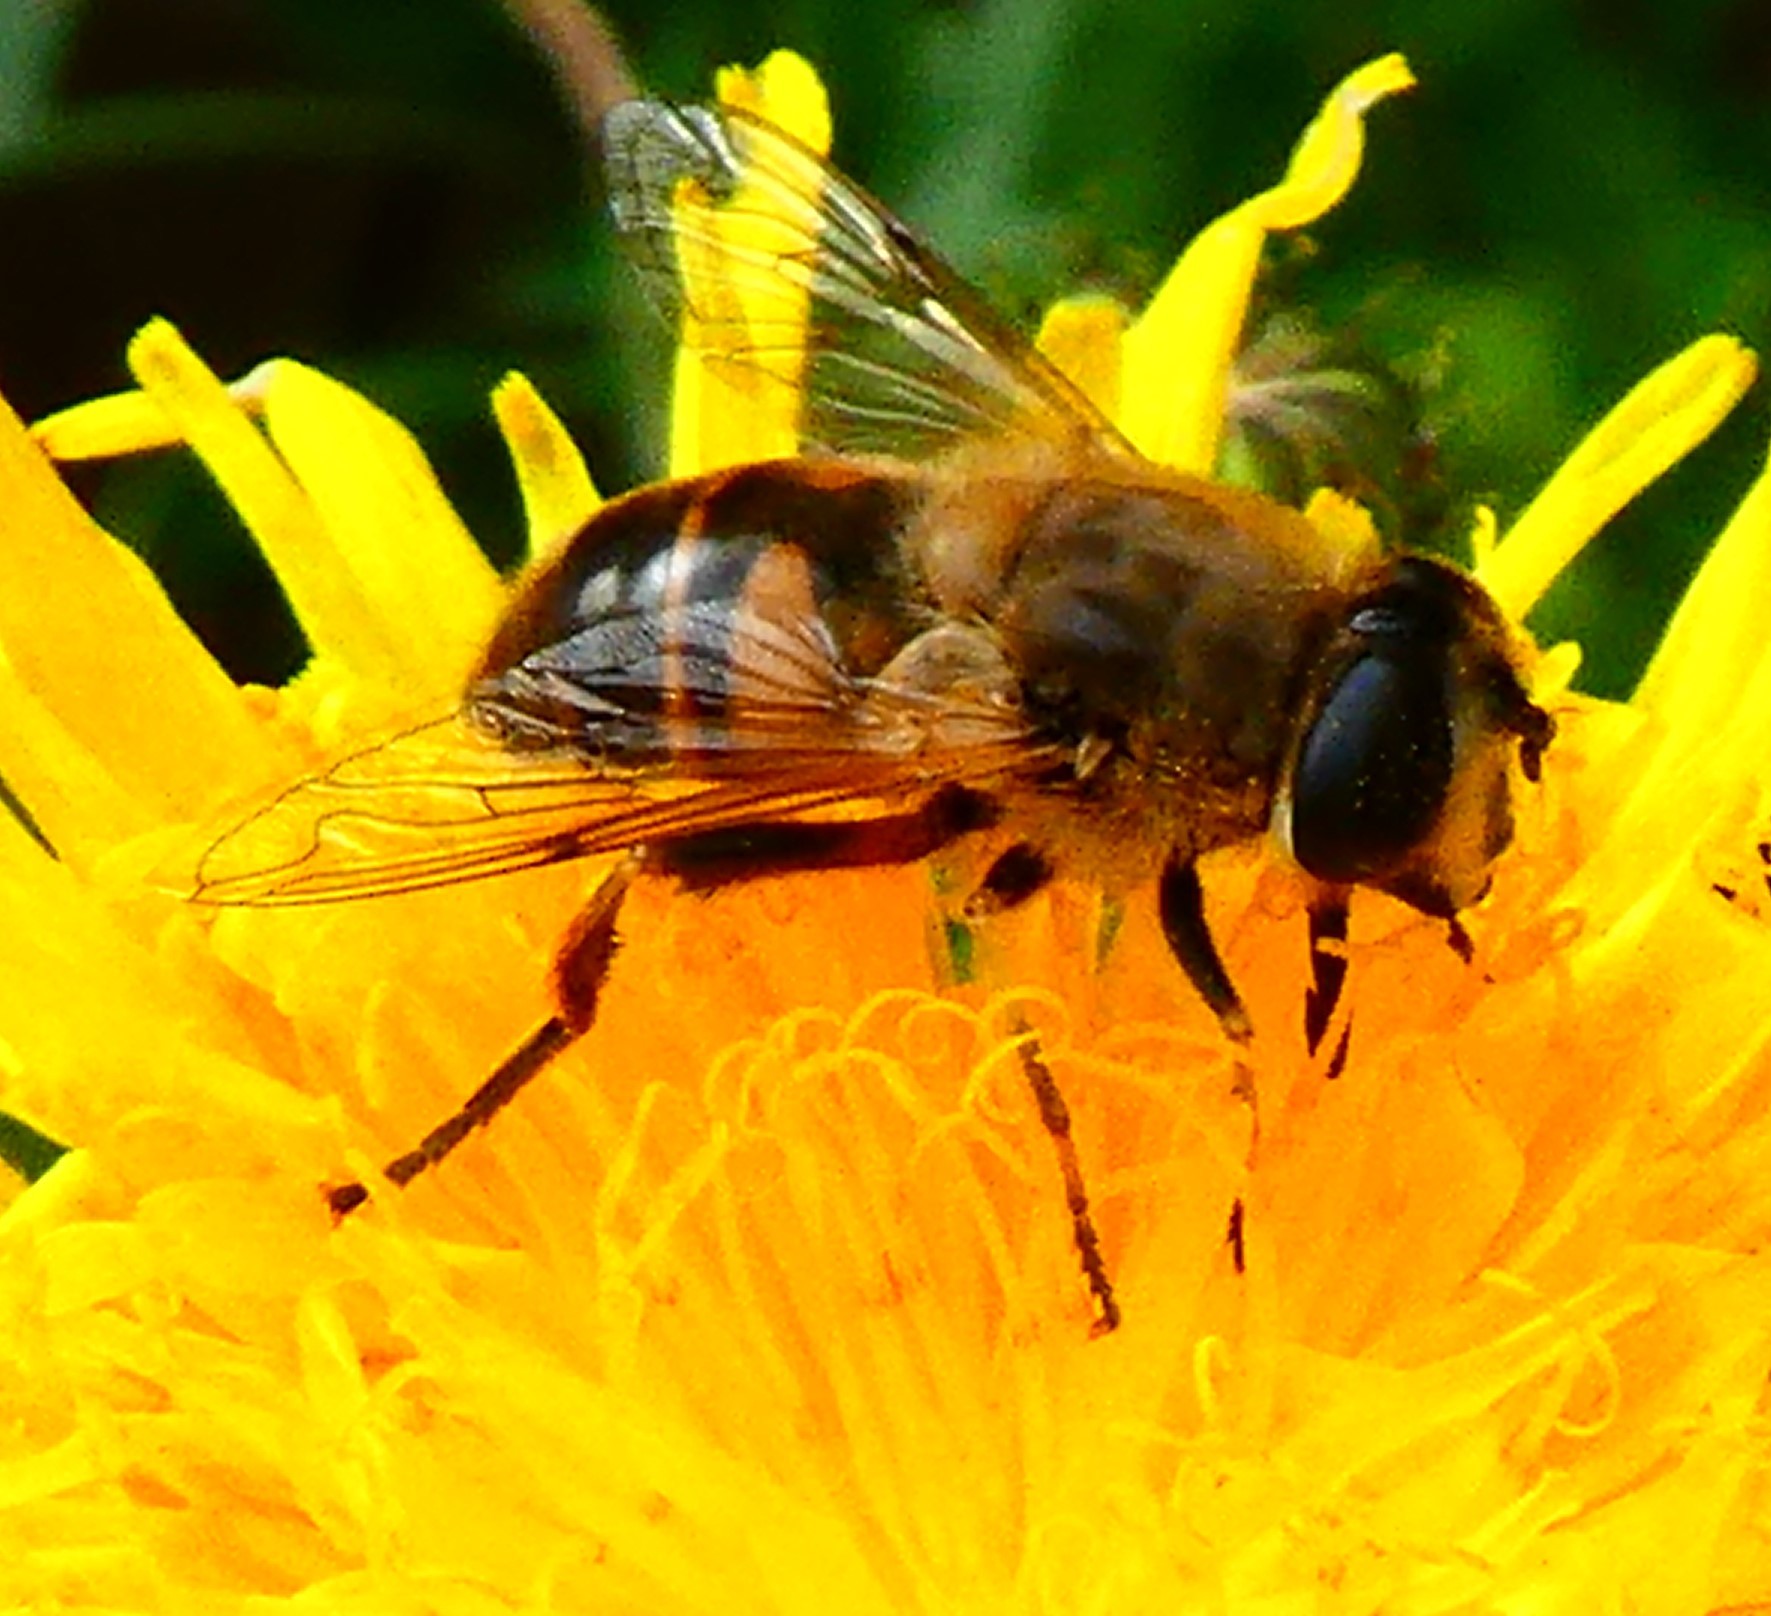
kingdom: Animalia
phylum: Arthropoda
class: Insecta
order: Diptera
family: Syrphidae
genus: Eristalis
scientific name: Eristalis tenax
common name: Drone fly
